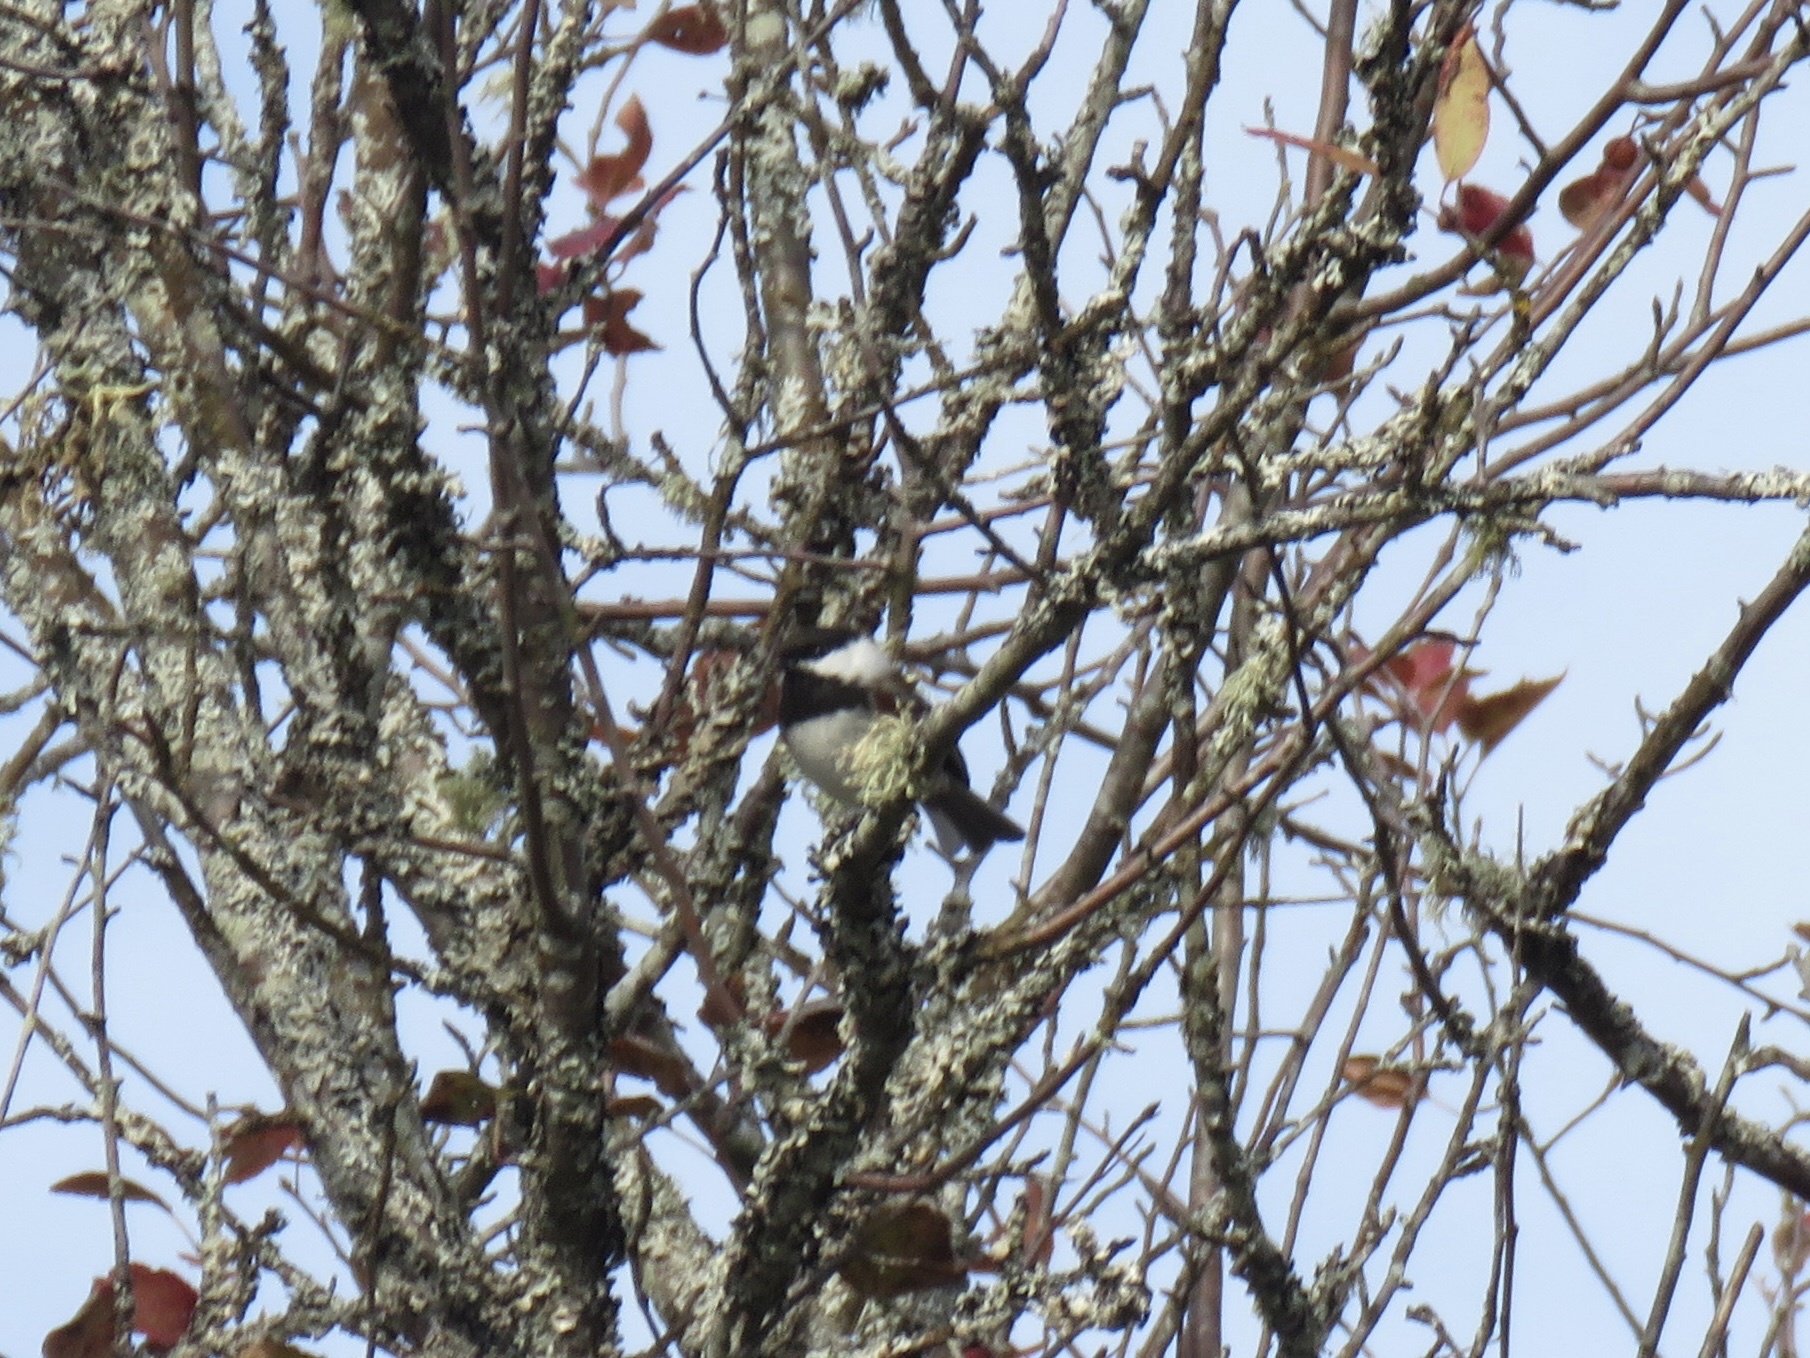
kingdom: Animalia
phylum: Chordata
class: Aves
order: Passeriformes
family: Paridae
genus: Poecile
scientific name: Poecile rufescens
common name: Chestnut-backed chickadee
